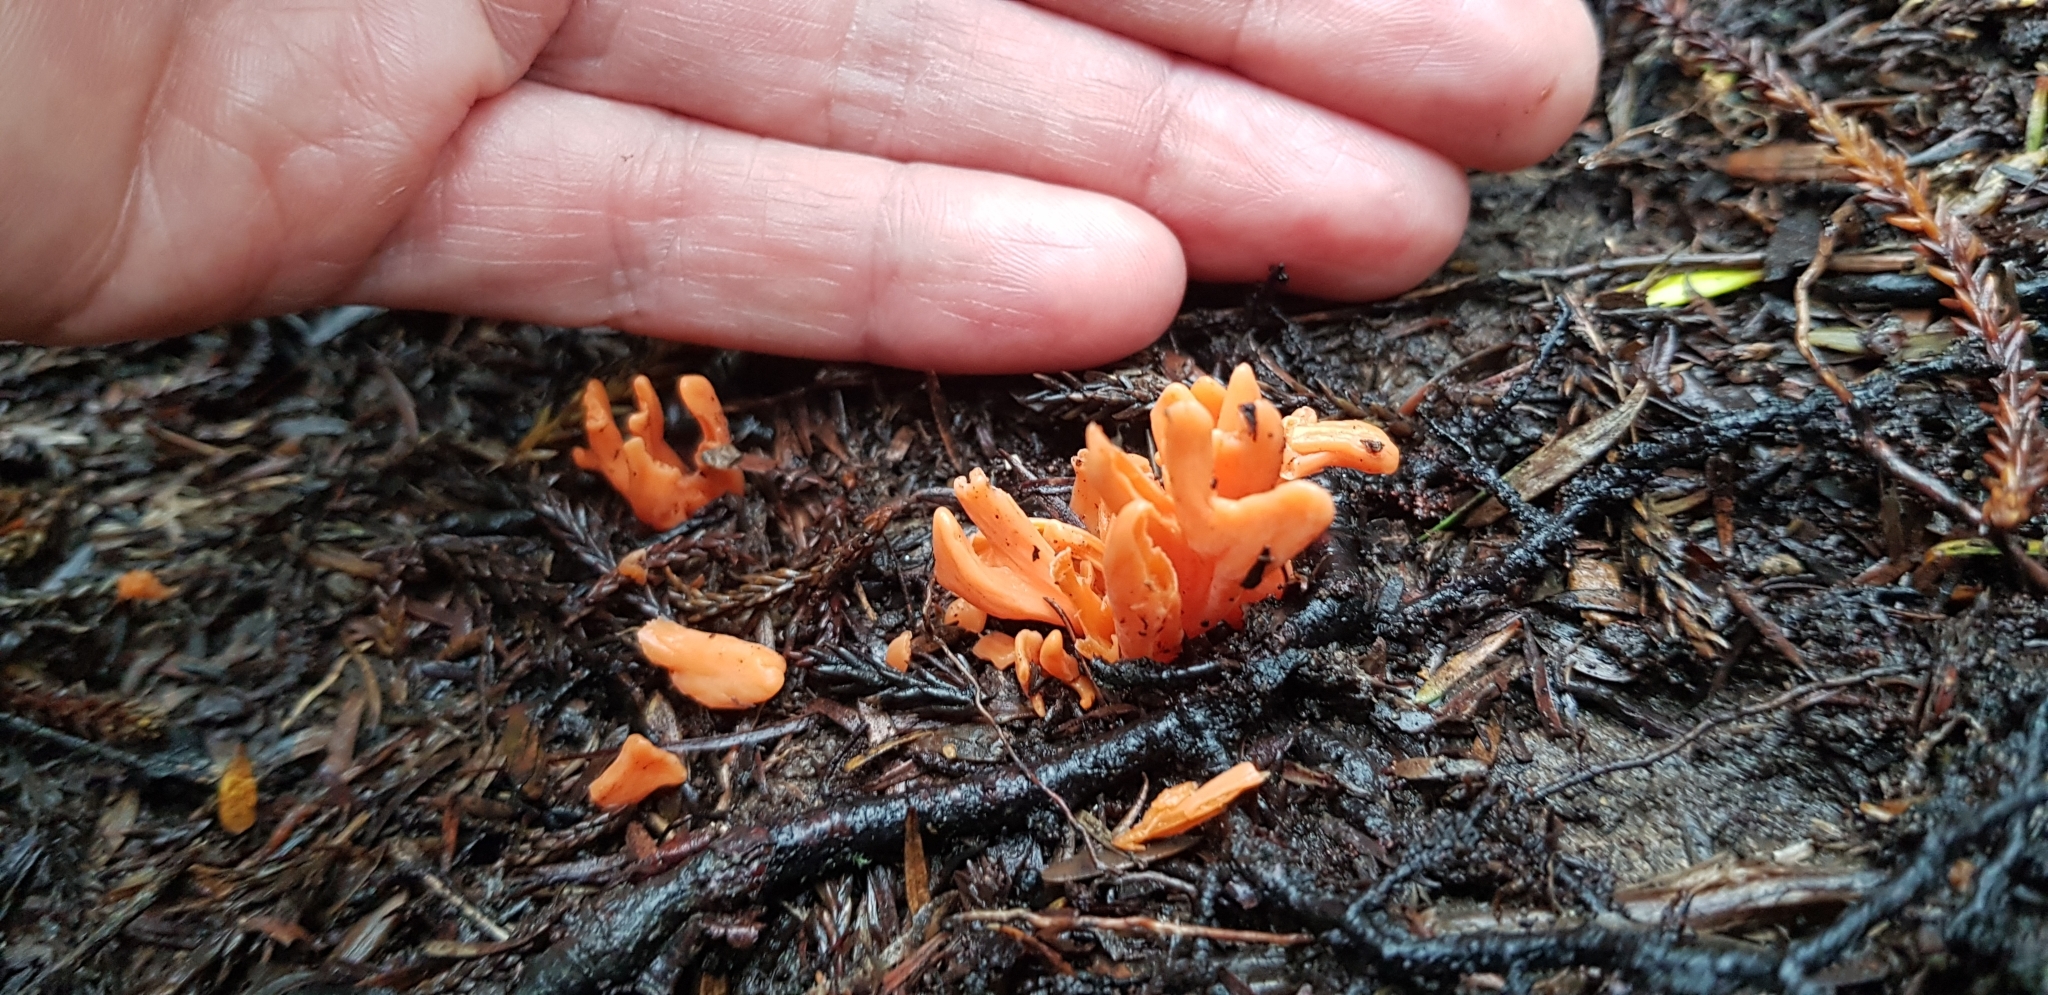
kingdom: Fungi
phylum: Basidiomycota
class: Agaricomycetes
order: Agaricales
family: Clavariaceae
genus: Clavulinopsis
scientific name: Clavulinopsis sulcata
